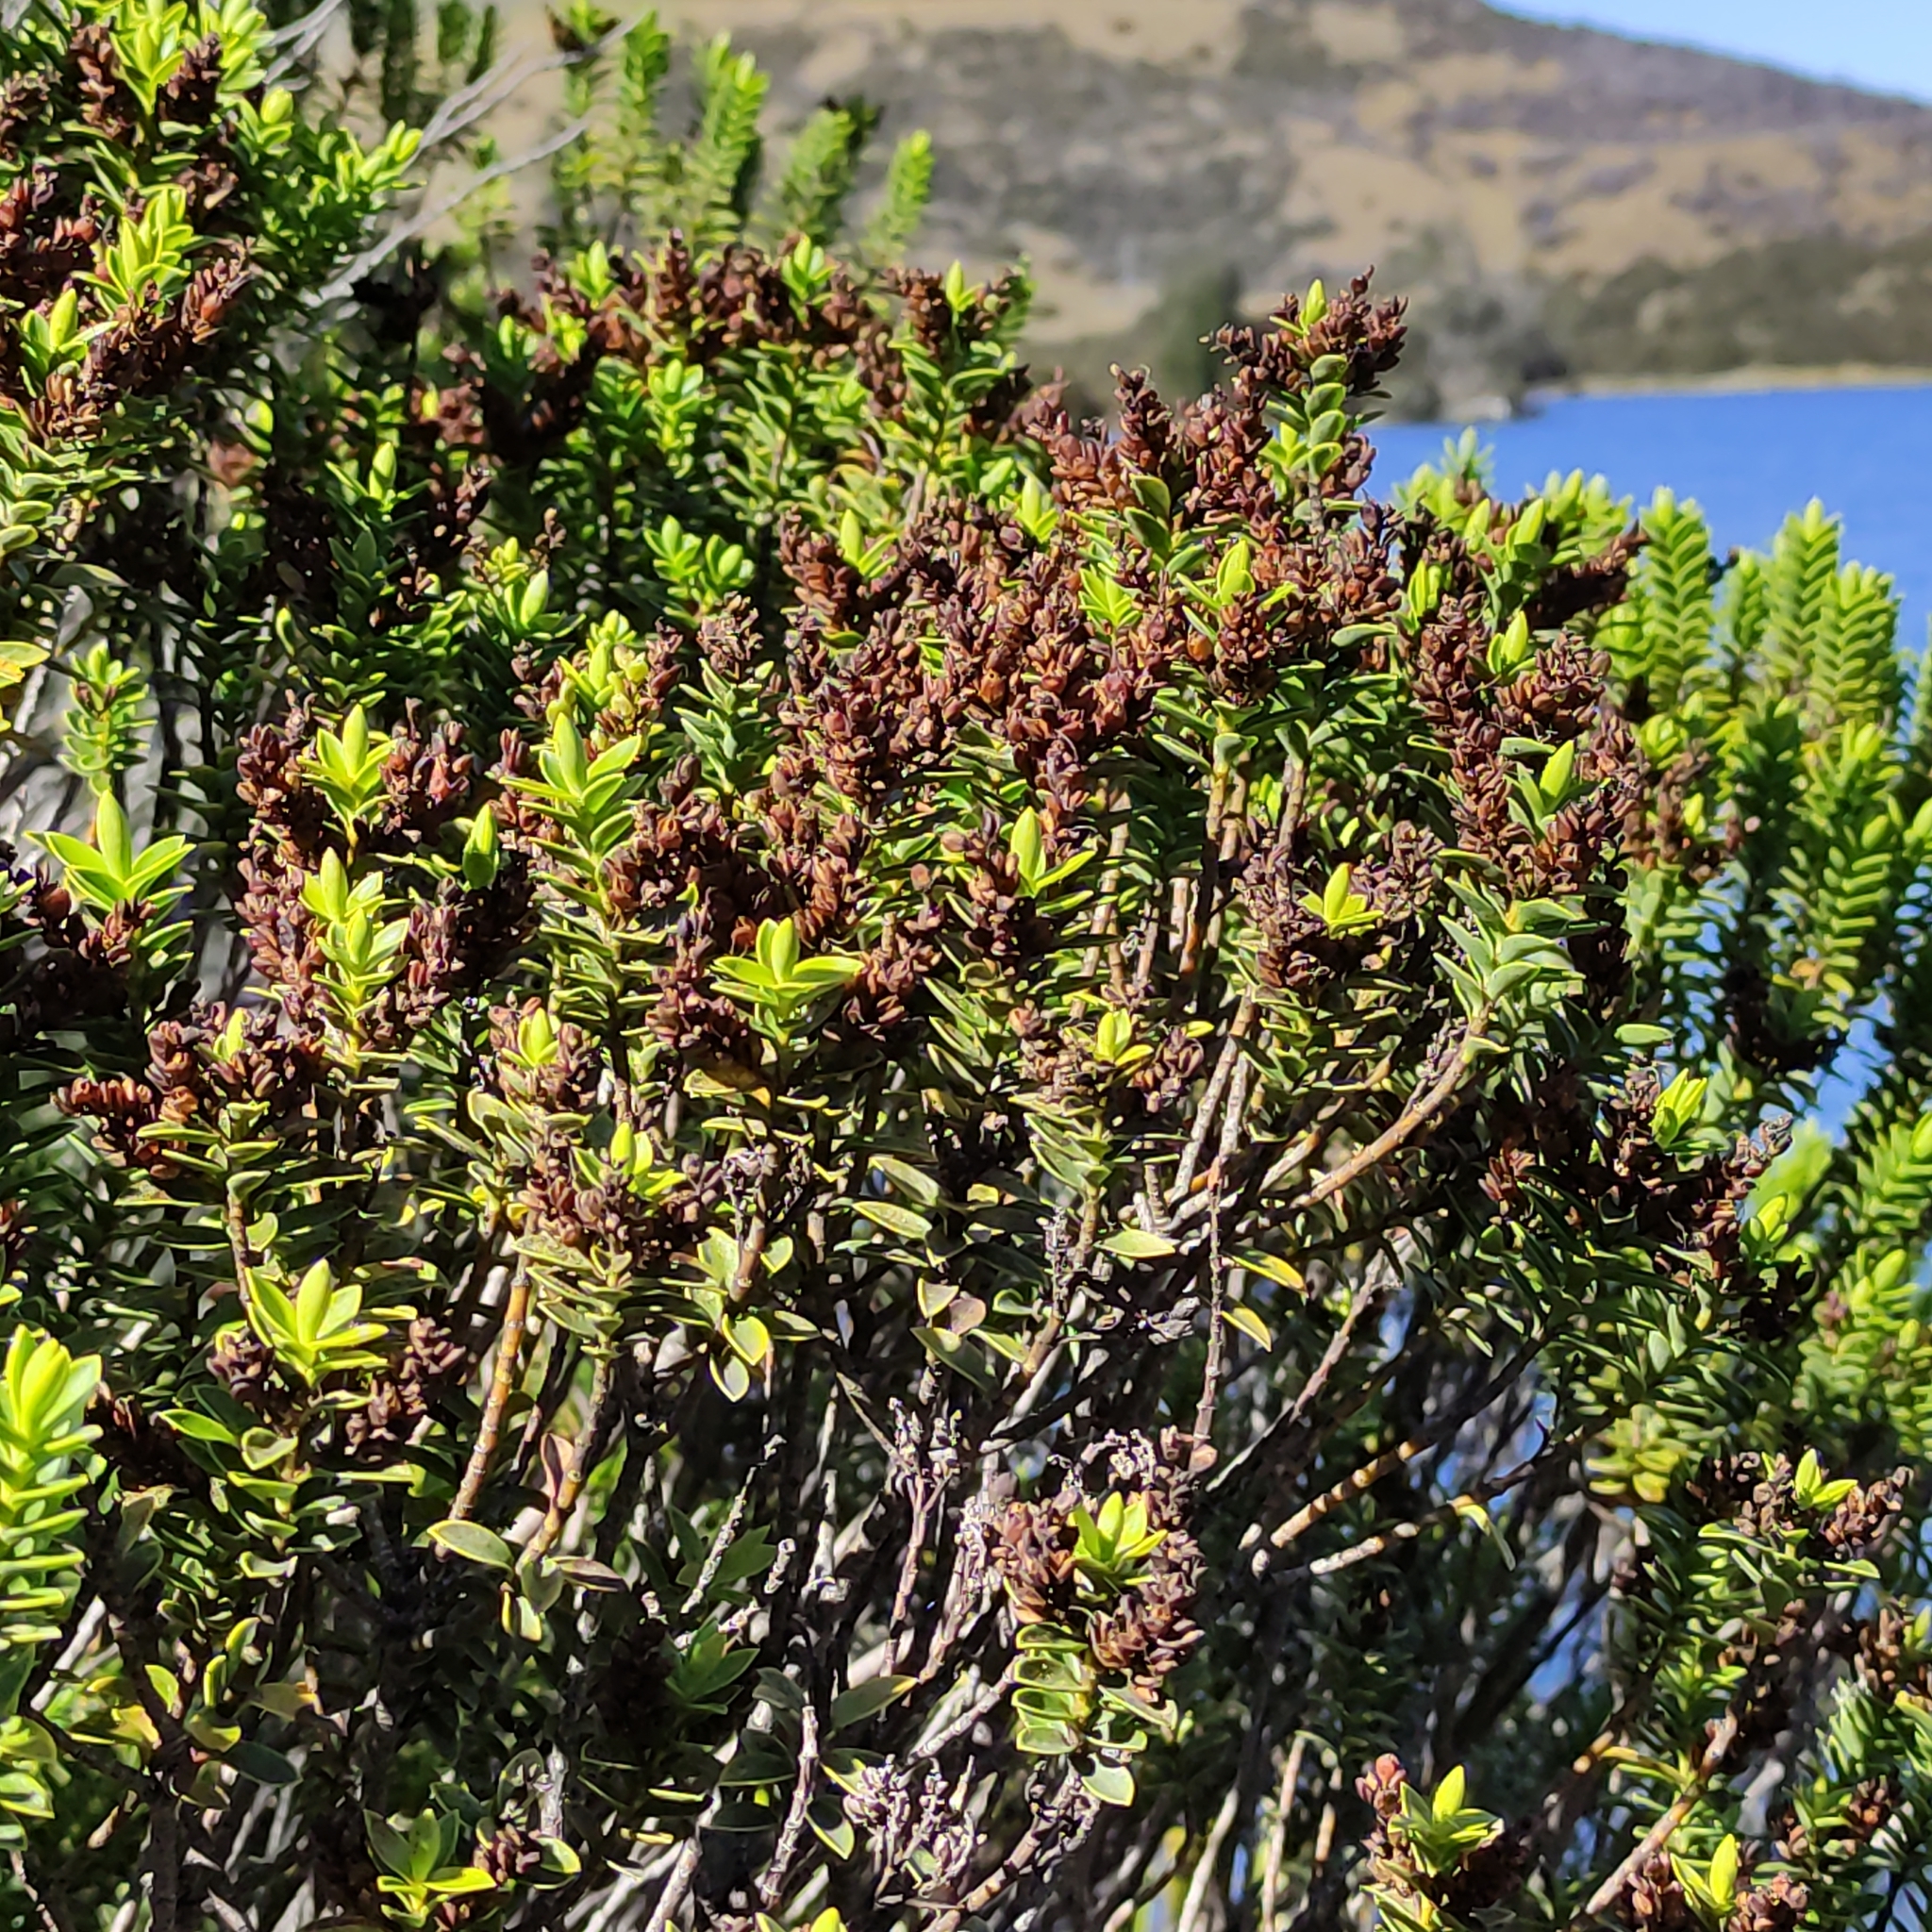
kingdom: Plantae
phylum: Tracheophyta
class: Magnoliopsida
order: Lamiales
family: Plantaginaceae
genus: Veronica
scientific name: Veronica odora
